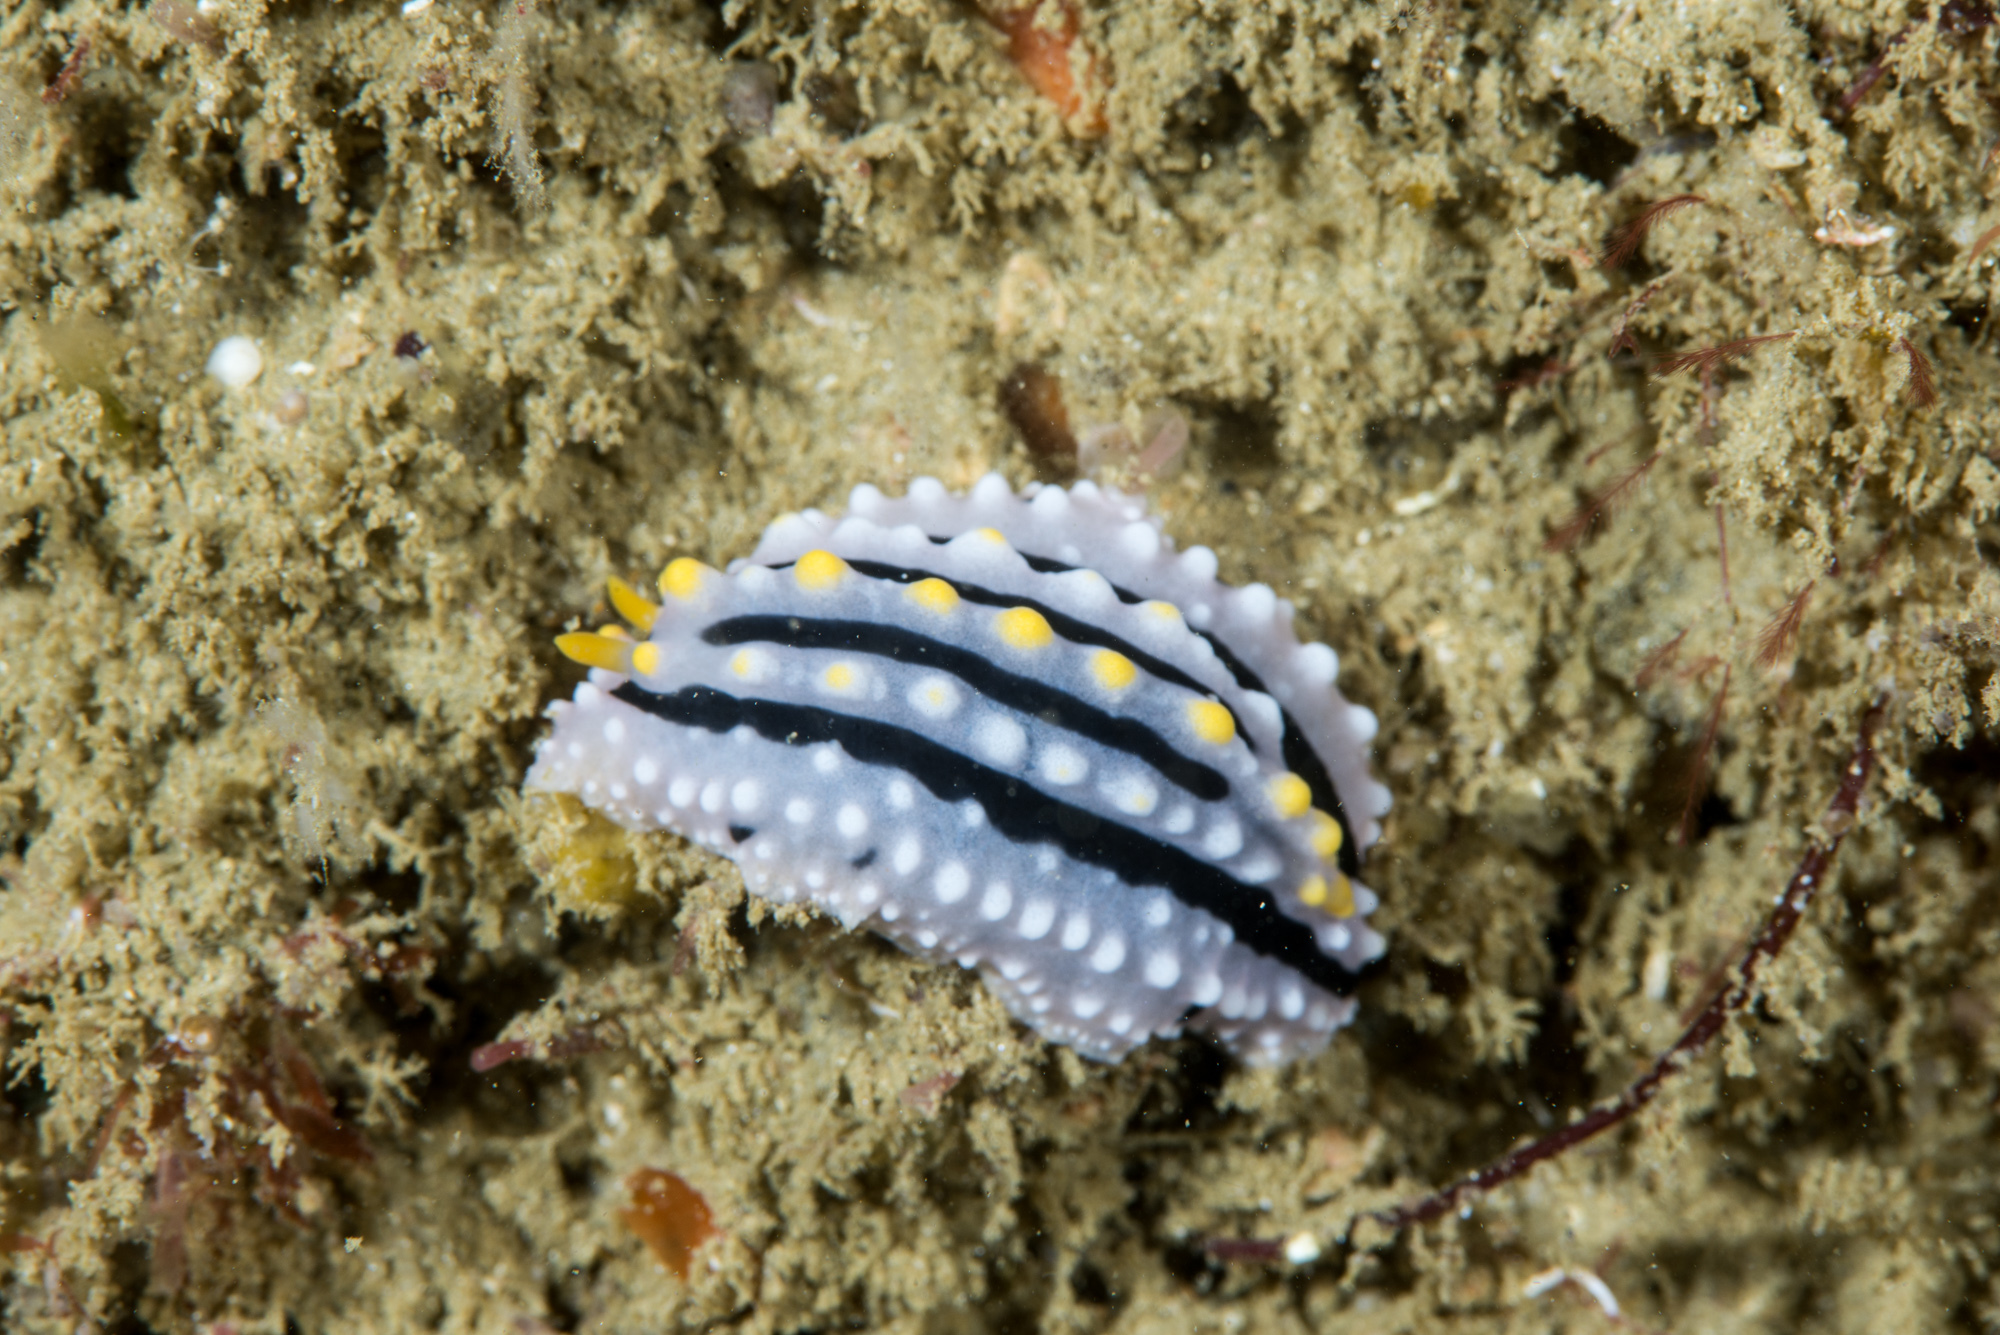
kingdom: Animalia
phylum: Mollusca
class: Gastropoda
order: Nudibranchia
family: Phyllidiidae
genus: Phyllidia
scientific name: Phyllidia alyta
